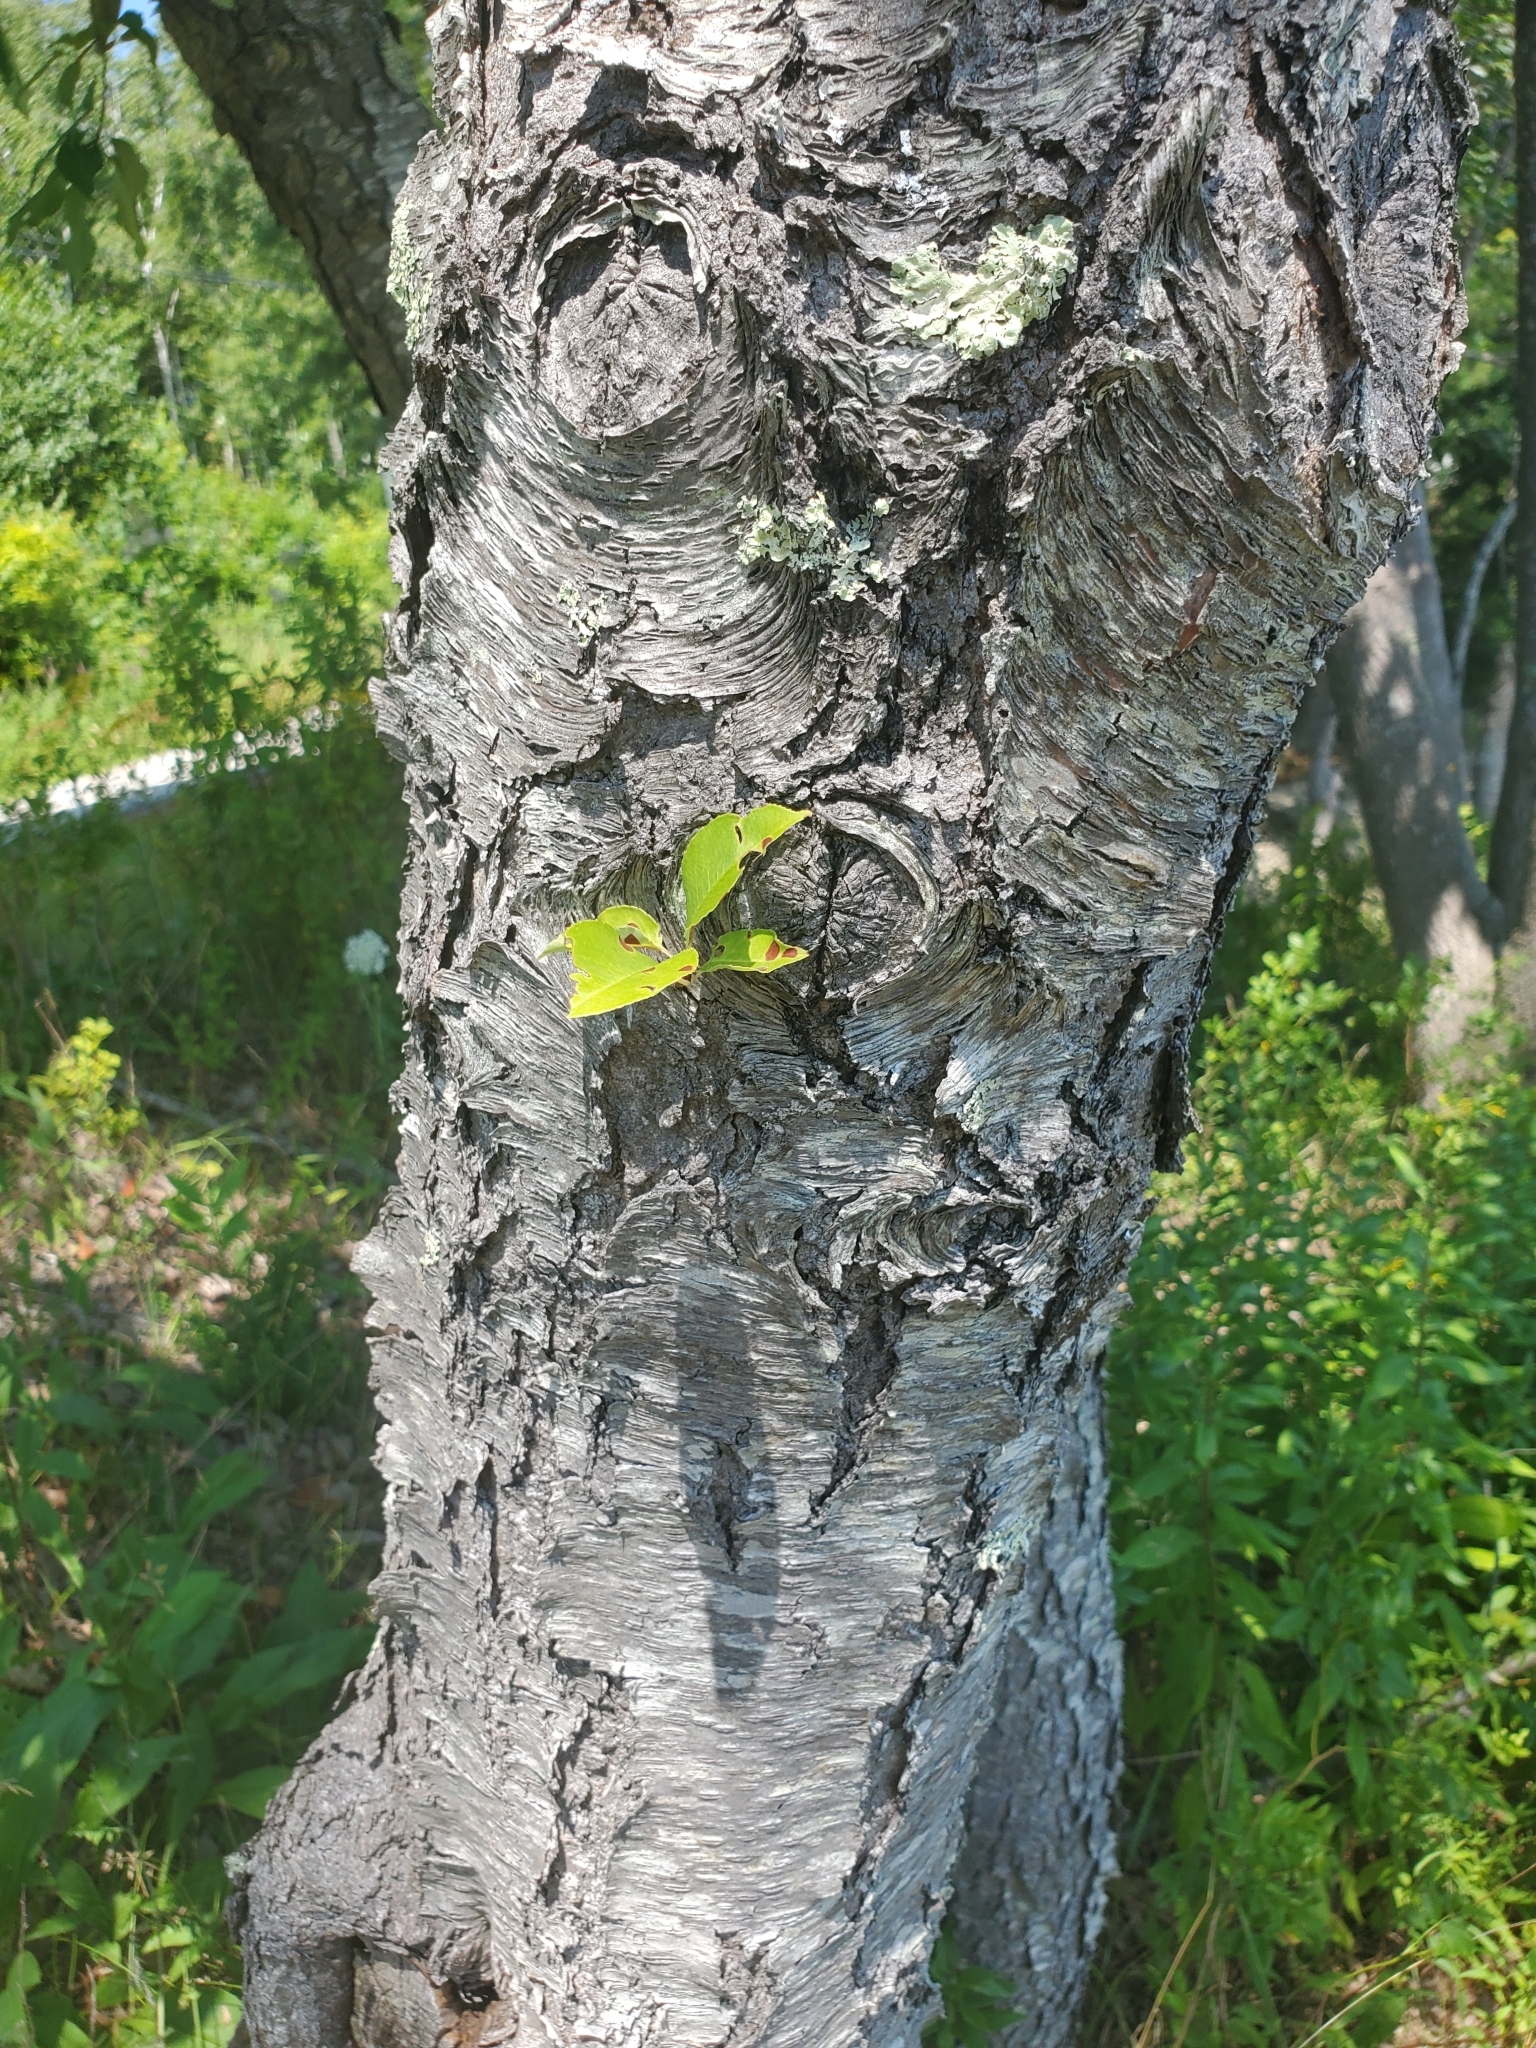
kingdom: Plantae
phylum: Tracheophyta
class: Magnoliopsida
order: Rosales
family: Rosaceae
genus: Prunus
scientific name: Prunus serotina
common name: Black cherry
